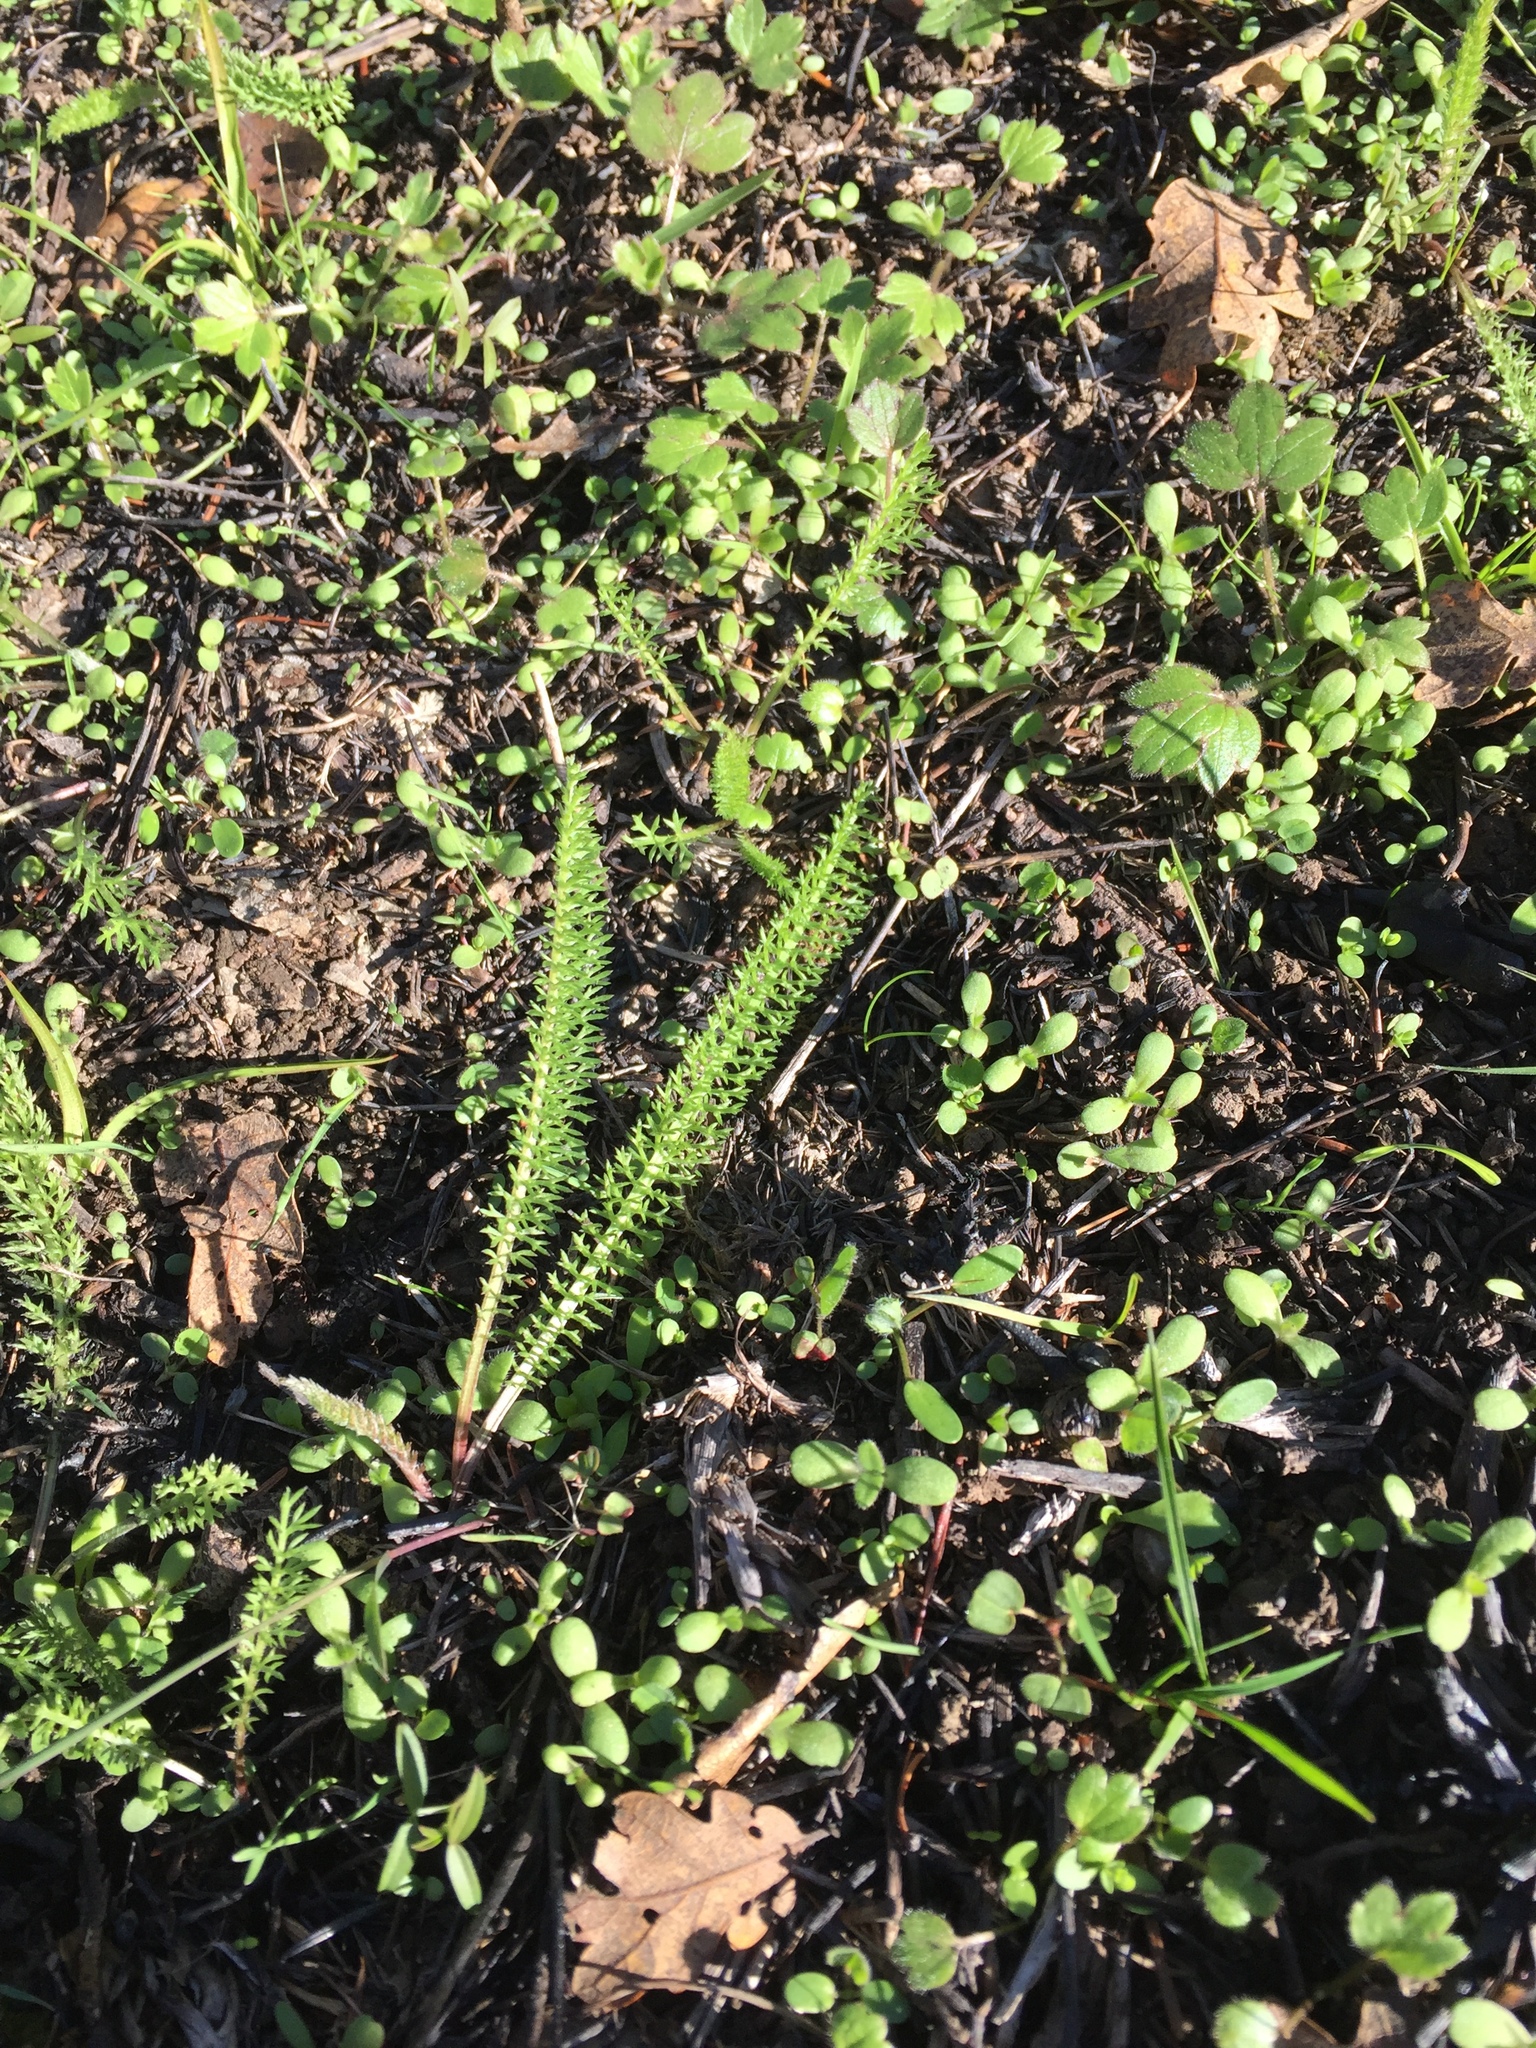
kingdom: Plantae
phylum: Tracheophyta
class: Magnoliopsida
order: Asterales
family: Asteraceae
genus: Achillea
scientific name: Achillea millefolium
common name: Yarrow
